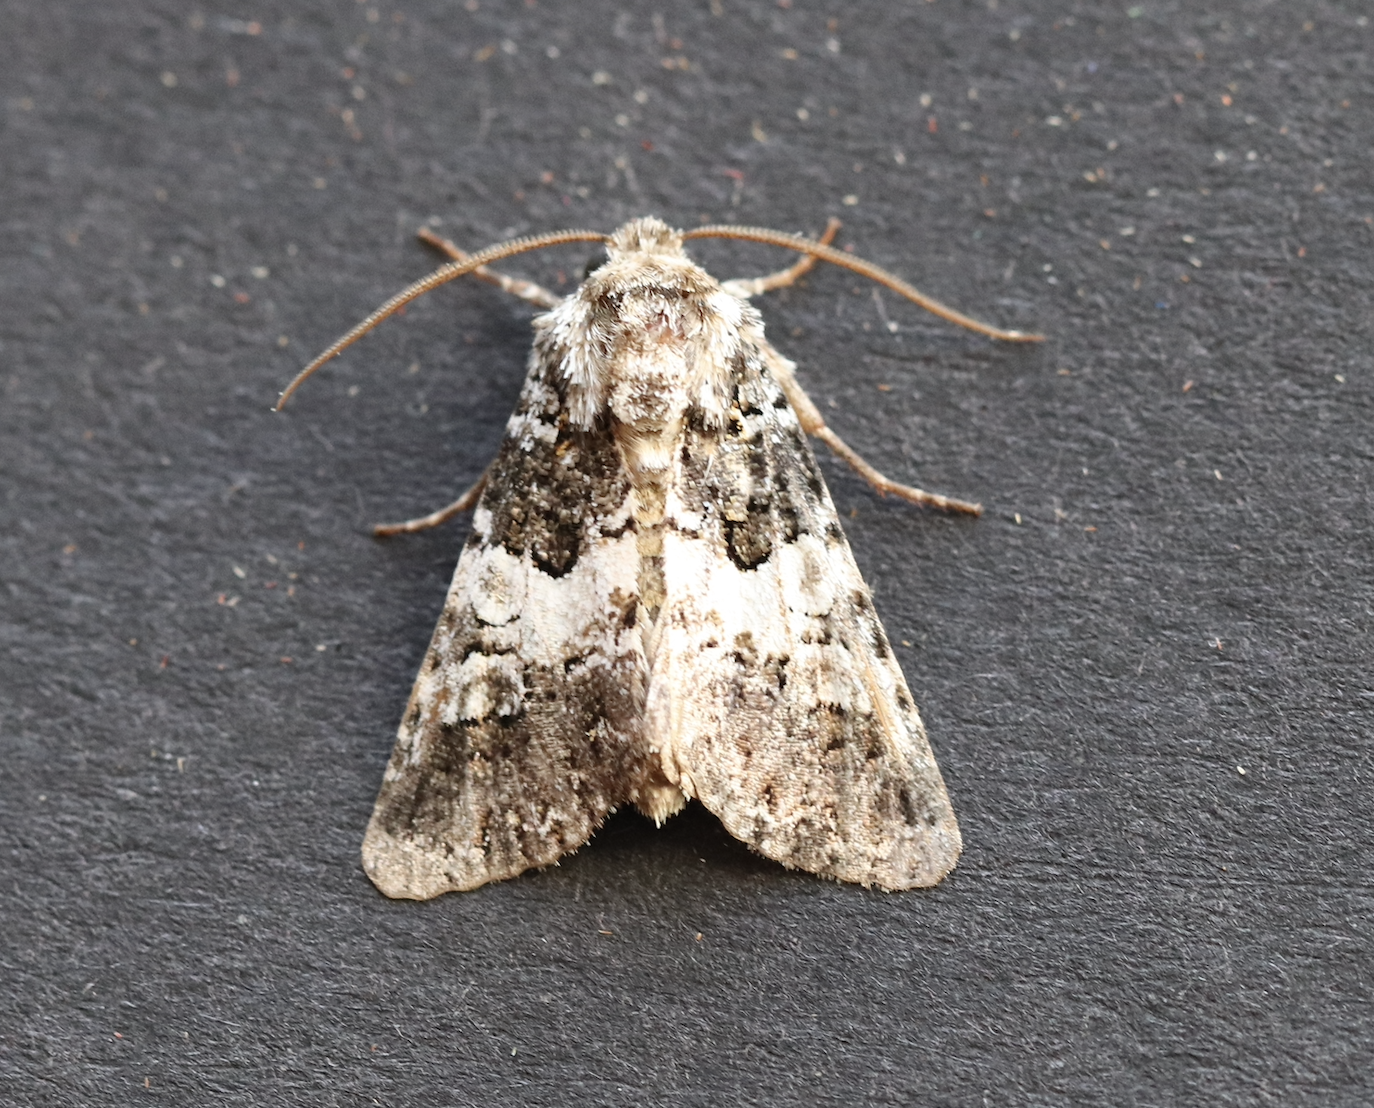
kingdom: Animalia
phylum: Arthropoda
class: Insecta
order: Lepidoptera
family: Noctuidae
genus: Hadena
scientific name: Hadena compta
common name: Varied coronet
